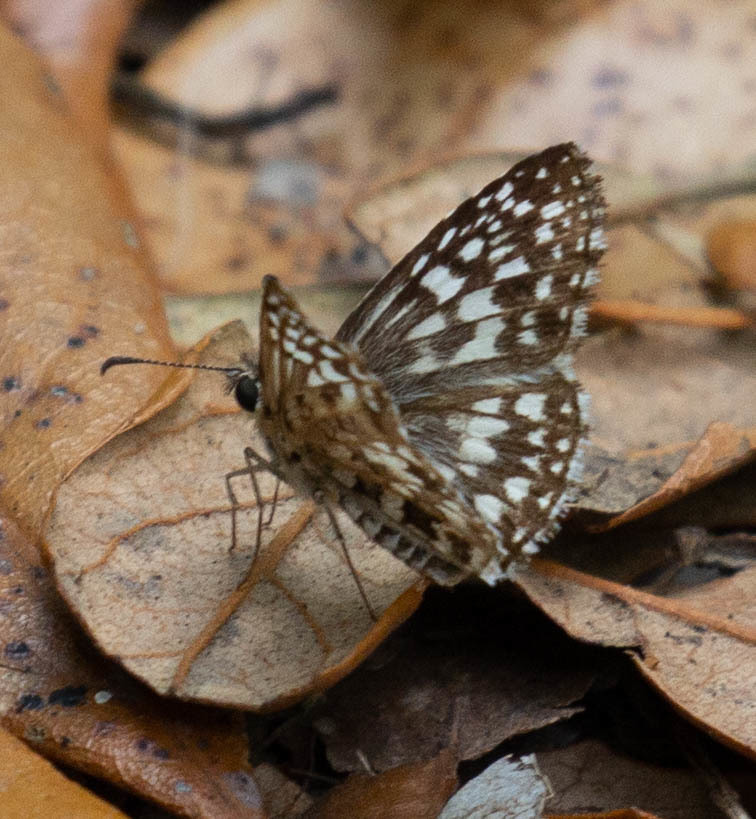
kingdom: Animalia
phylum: Arthropoda
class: Insecta
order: Lepidoptera
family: Hesperiidae
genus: Pyrgus
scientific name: Pyrgus oileus
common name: Tropical checkered-skipper
